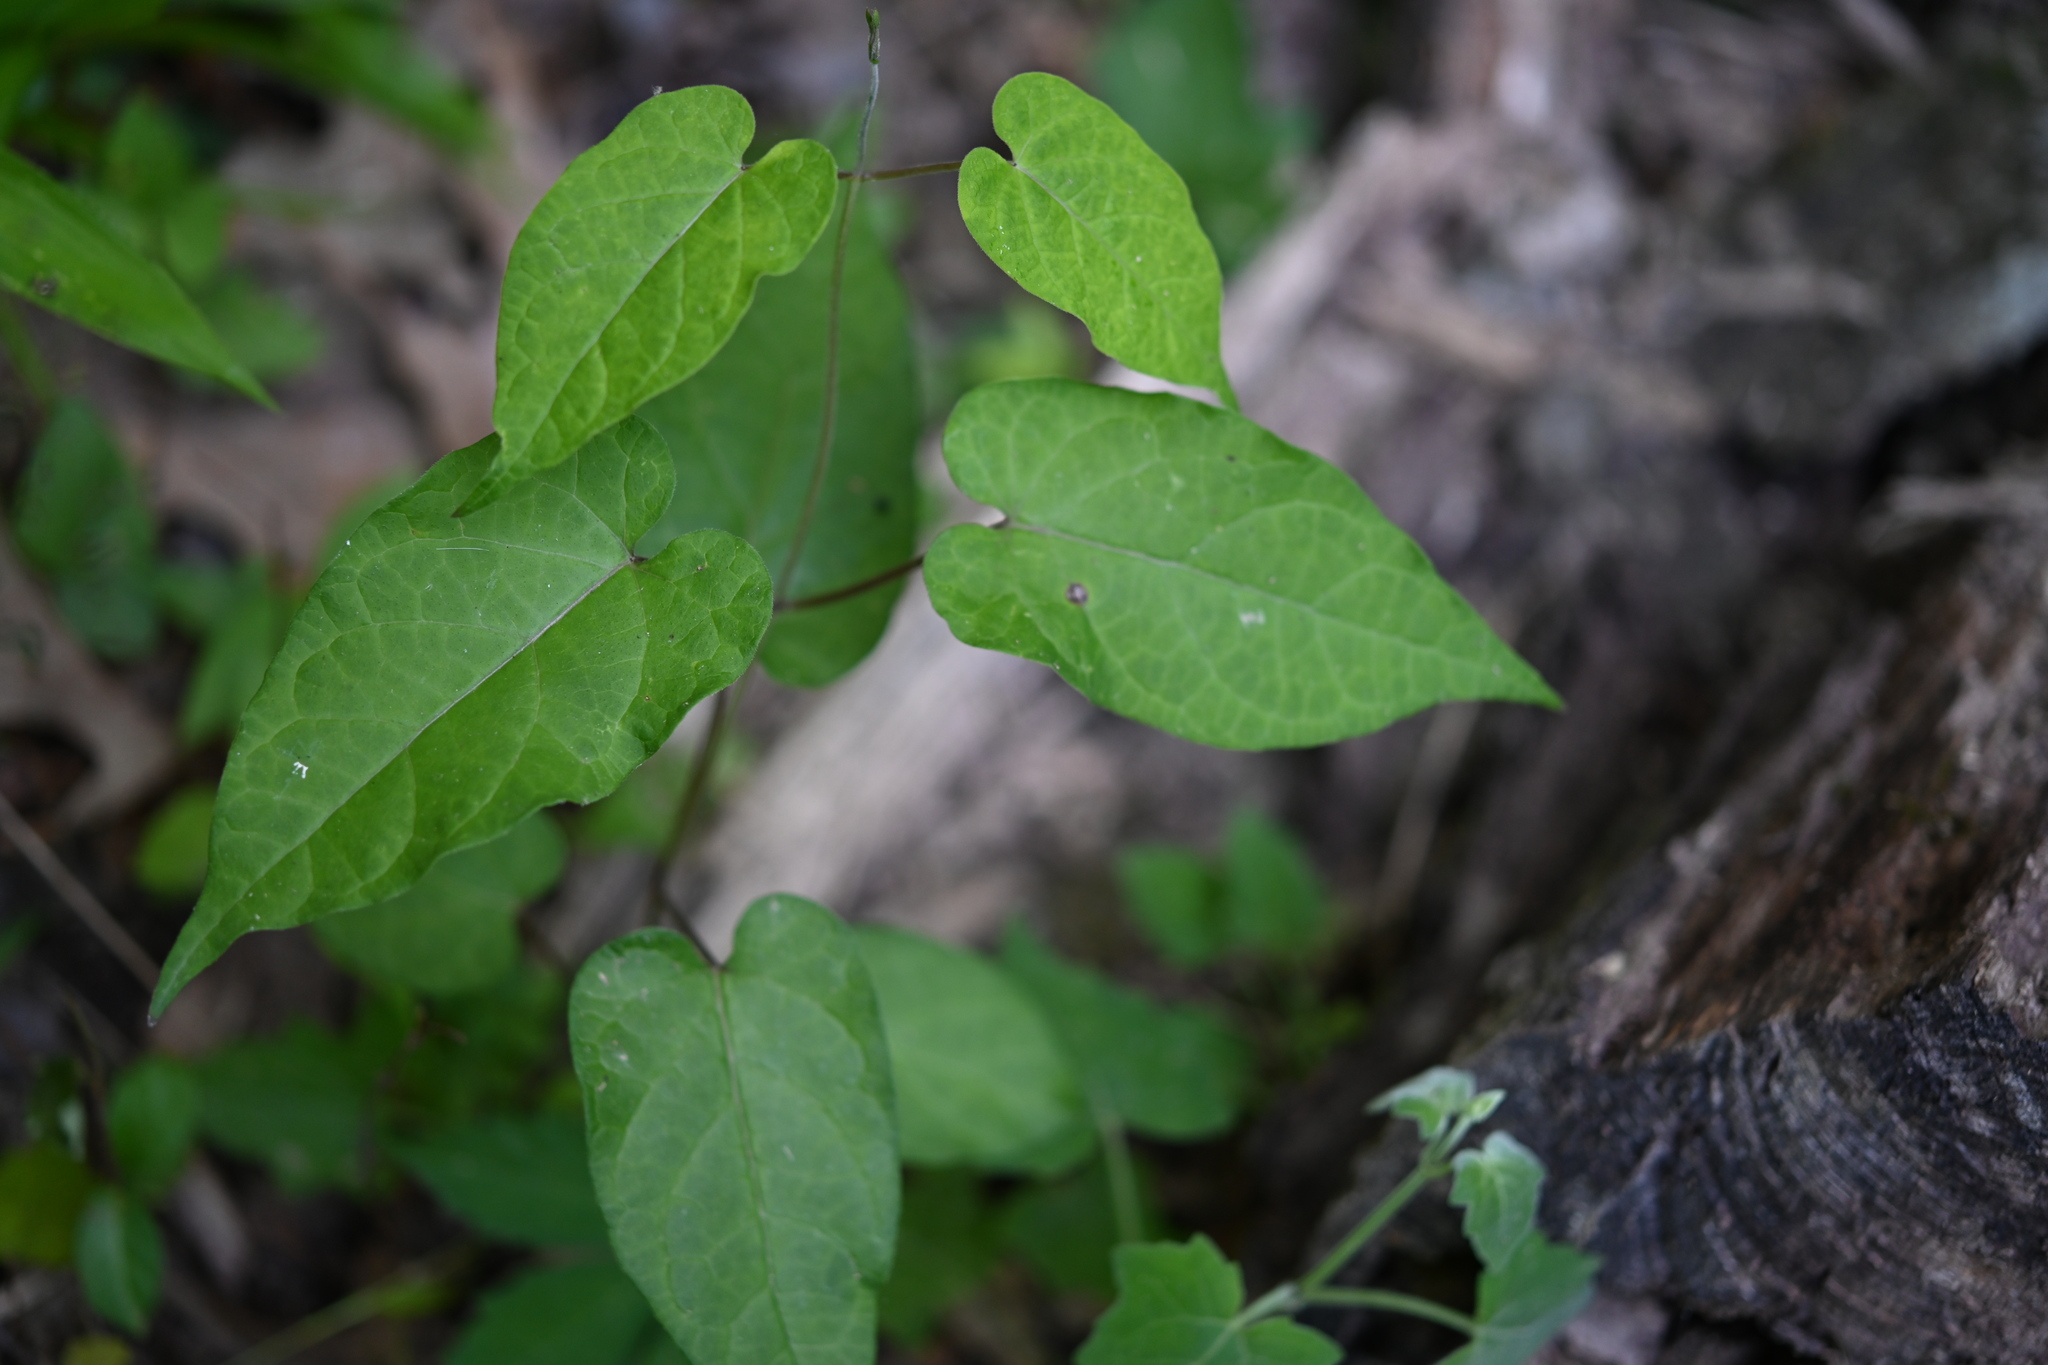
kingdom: Plantae
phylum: Tracheophyta
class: Magnoliopsida
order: Gentianales
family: Apocynaceae
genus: Gonolobus
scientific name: Gonolobus suberosus
